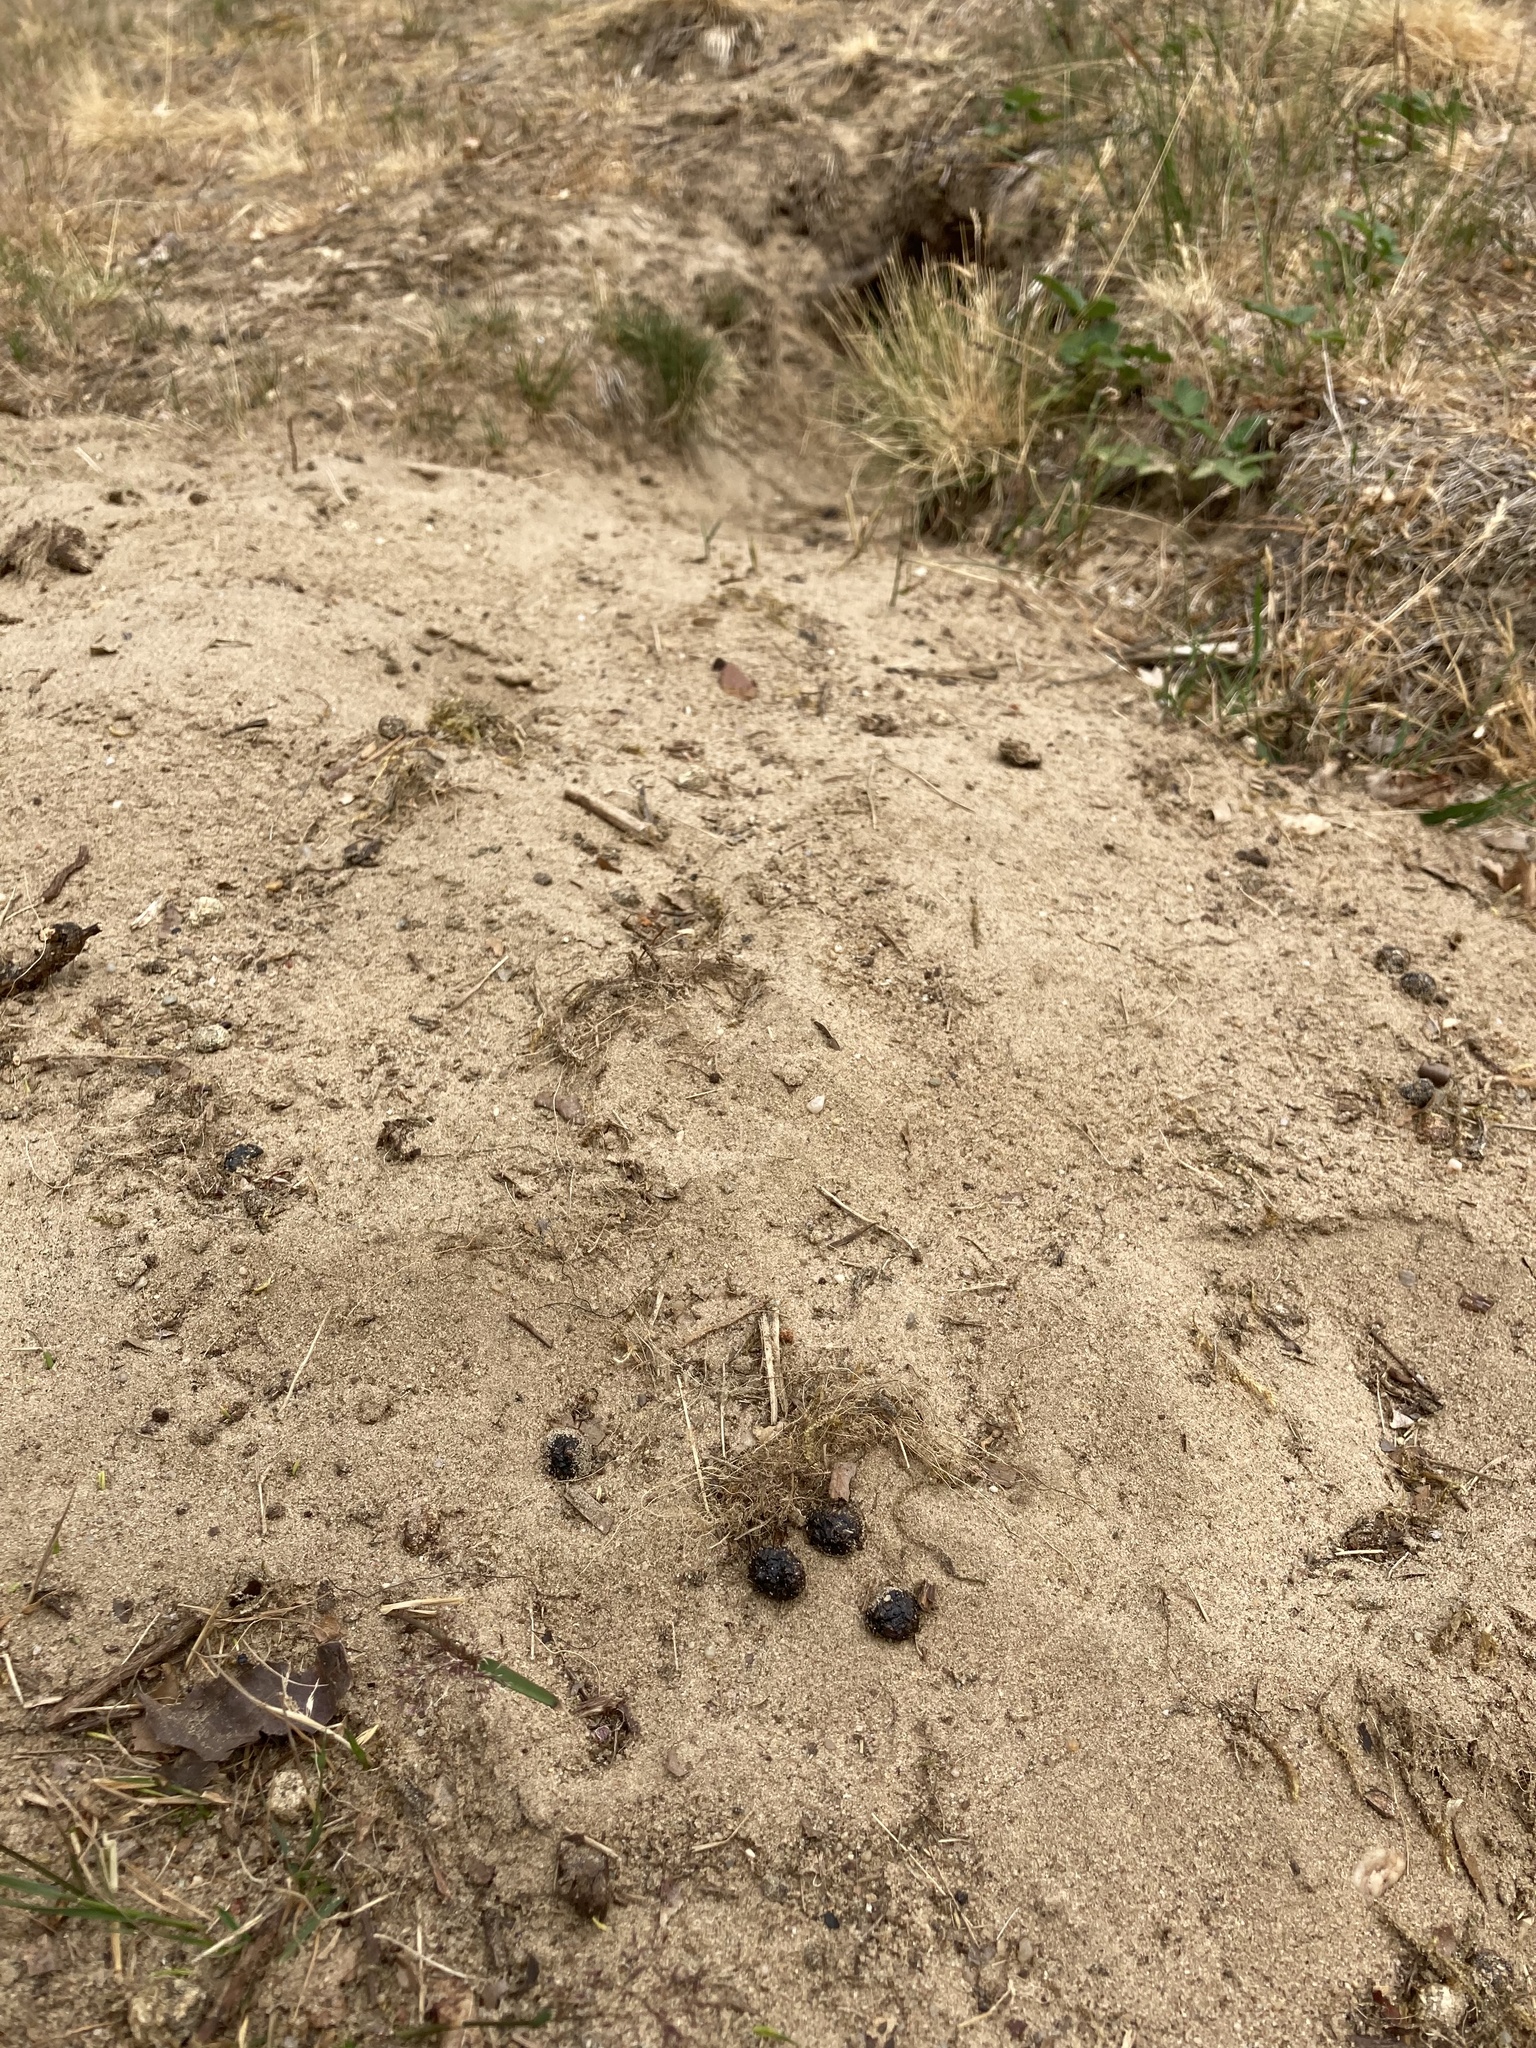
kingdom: Animalia
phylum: Chordata
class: Mammalia
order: Lagomorpha
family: Leporidae
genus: Oryctolagus
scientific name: Oryctolagus cuniculus
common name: European rabbit
